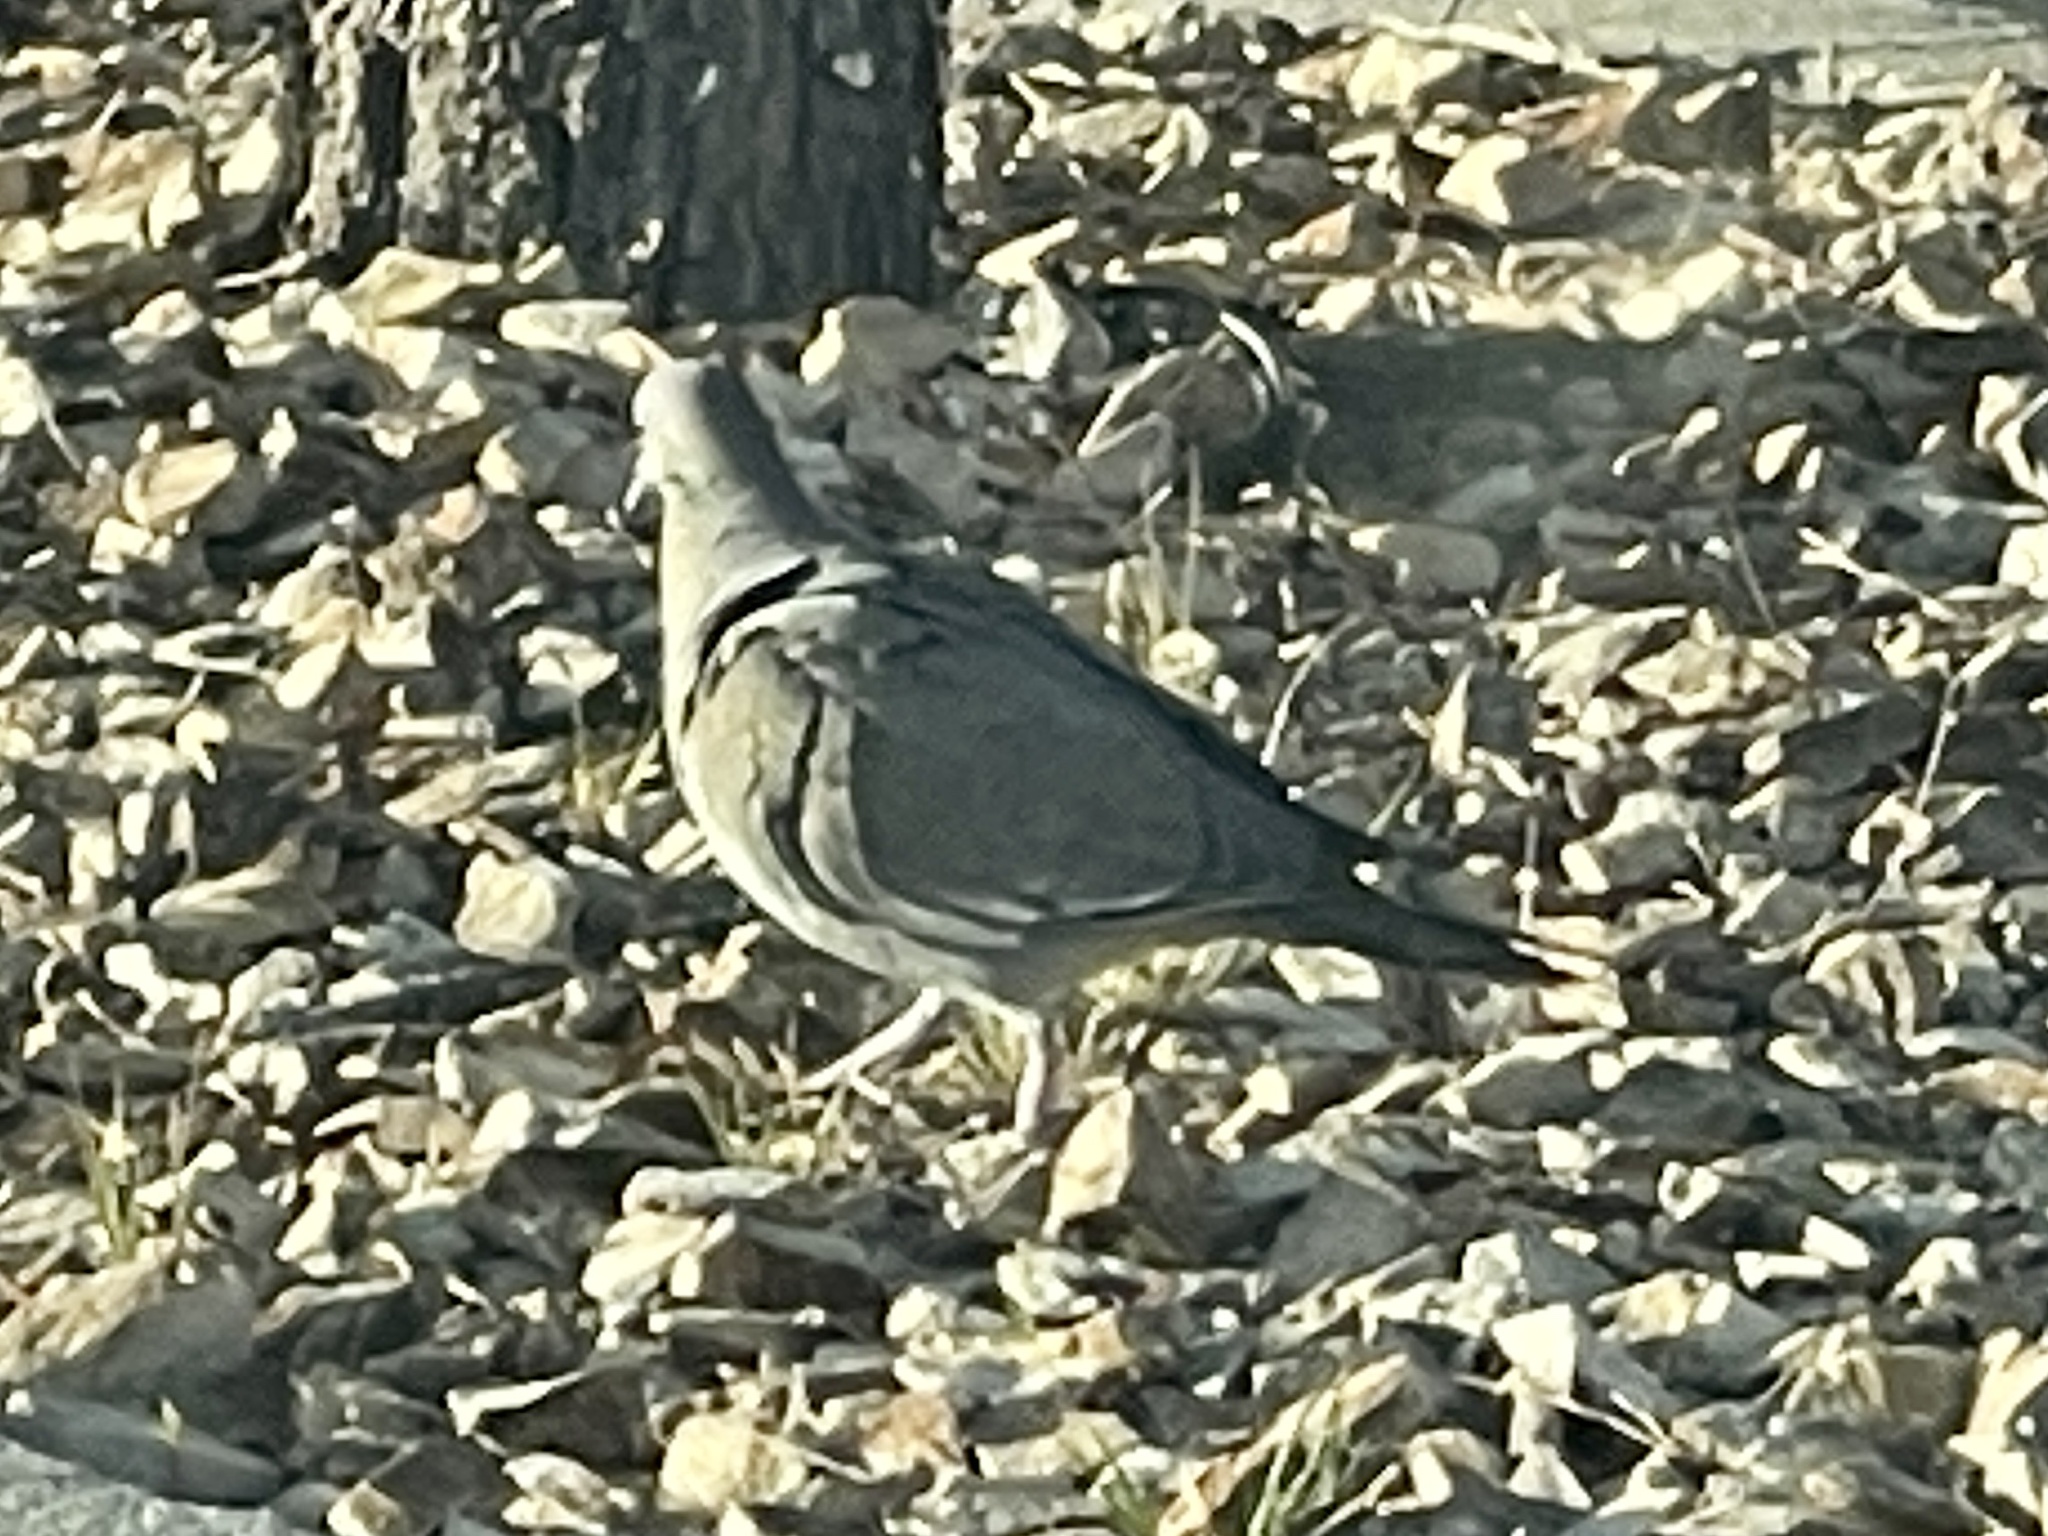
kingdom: Animalia
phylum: Chordata
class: Aves
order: Columbiformes
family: Columbidae
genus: Zenaida
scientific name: Zenaida asiatica
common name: White-winged dove
